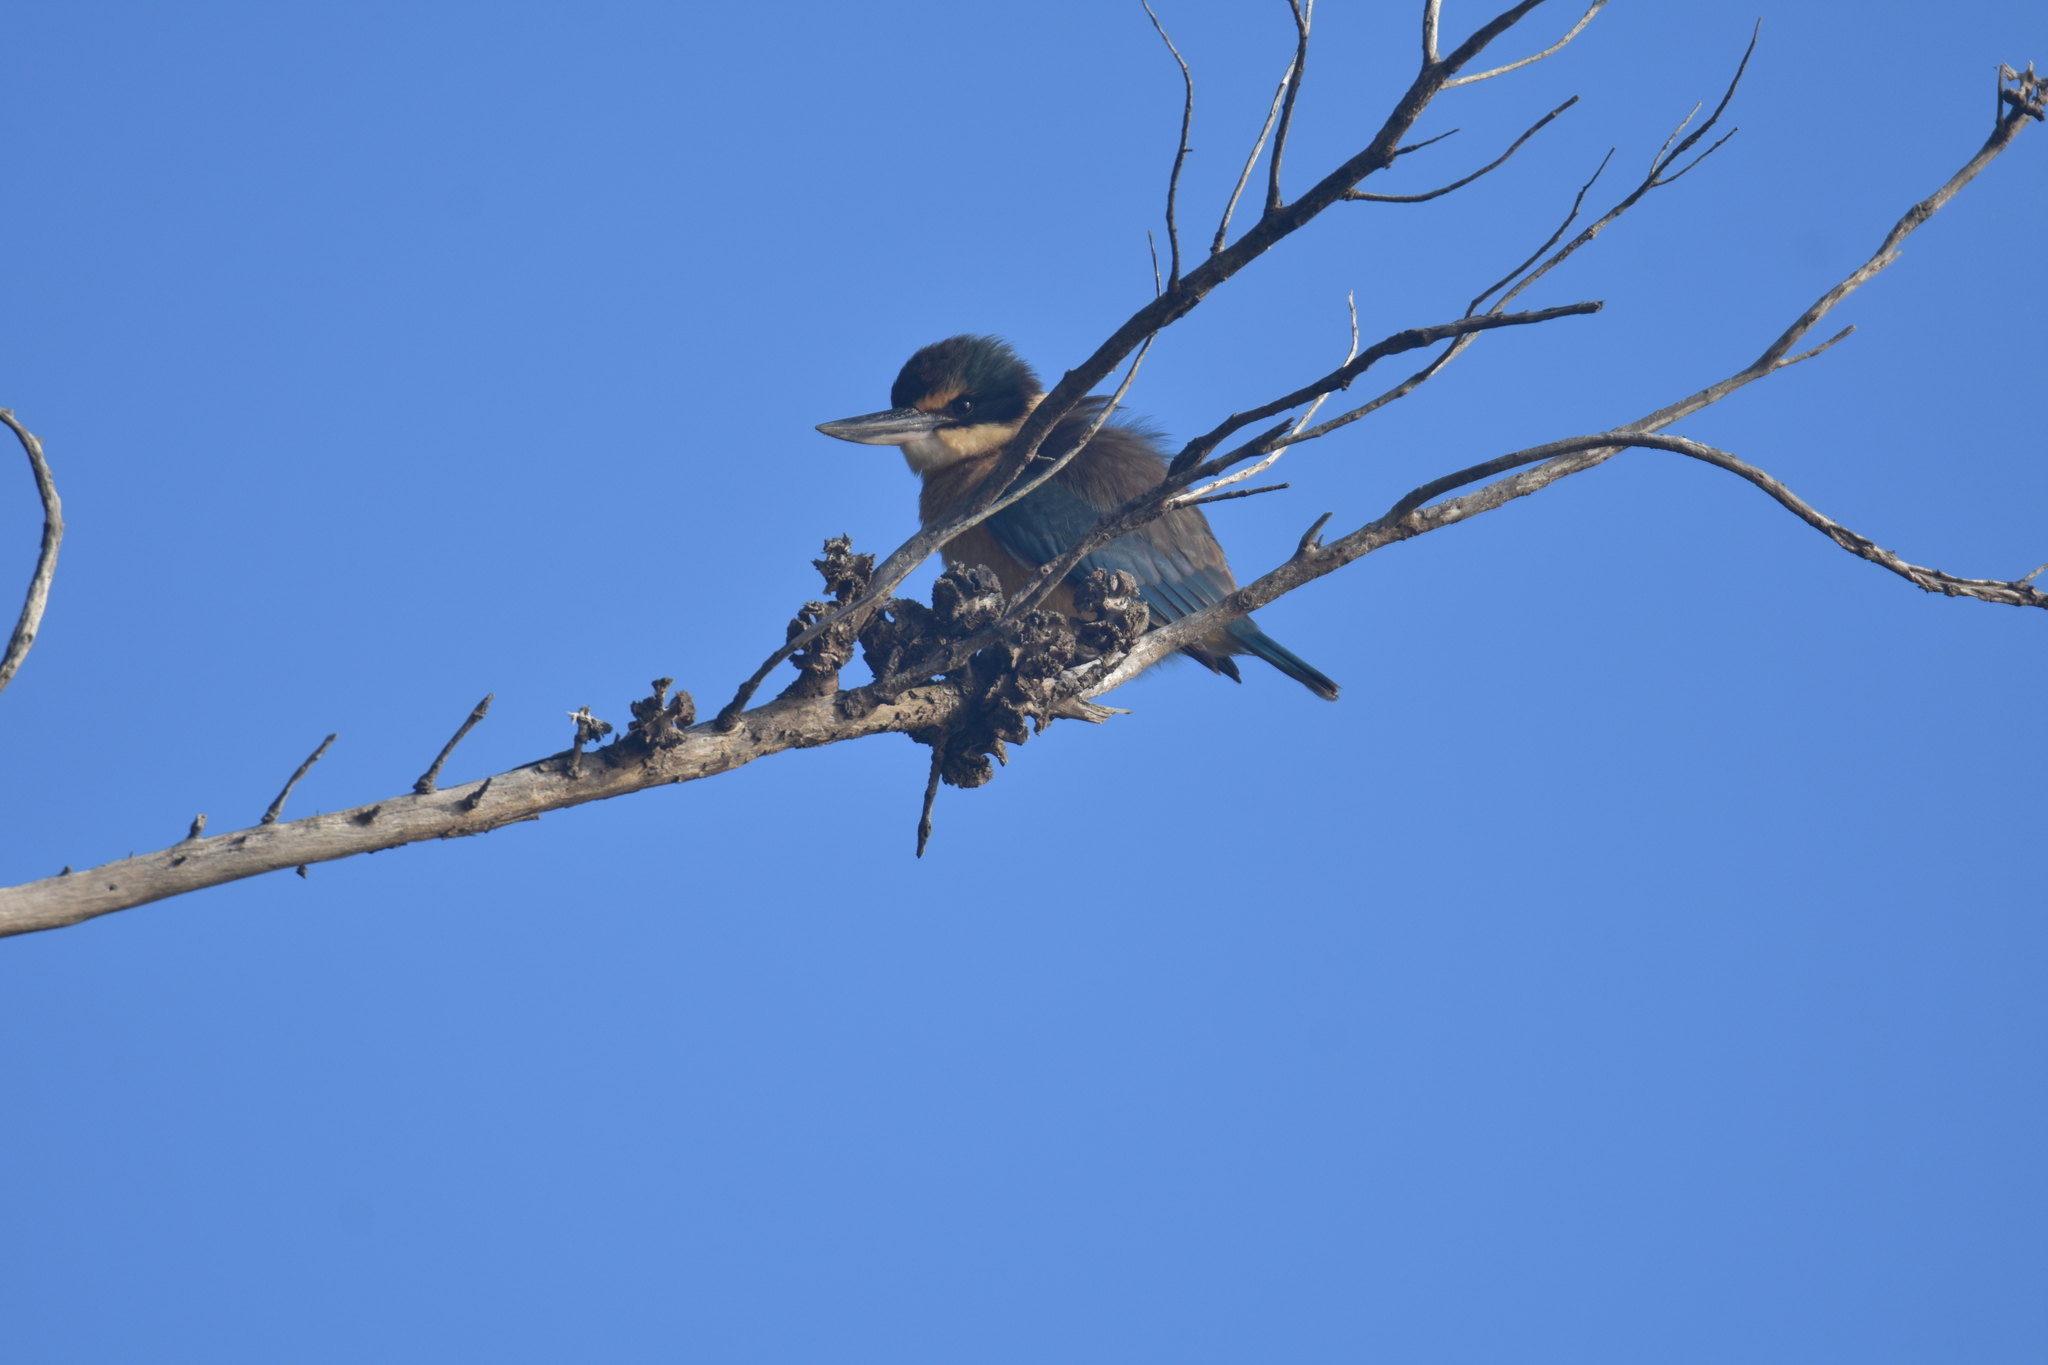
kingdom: Animalia
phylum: Chordata
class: Aves
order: Coraciiformes
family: Alcedinidae
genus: Todiramphus
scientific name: Todiramphus sanctus
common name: Sacred kingfisher
